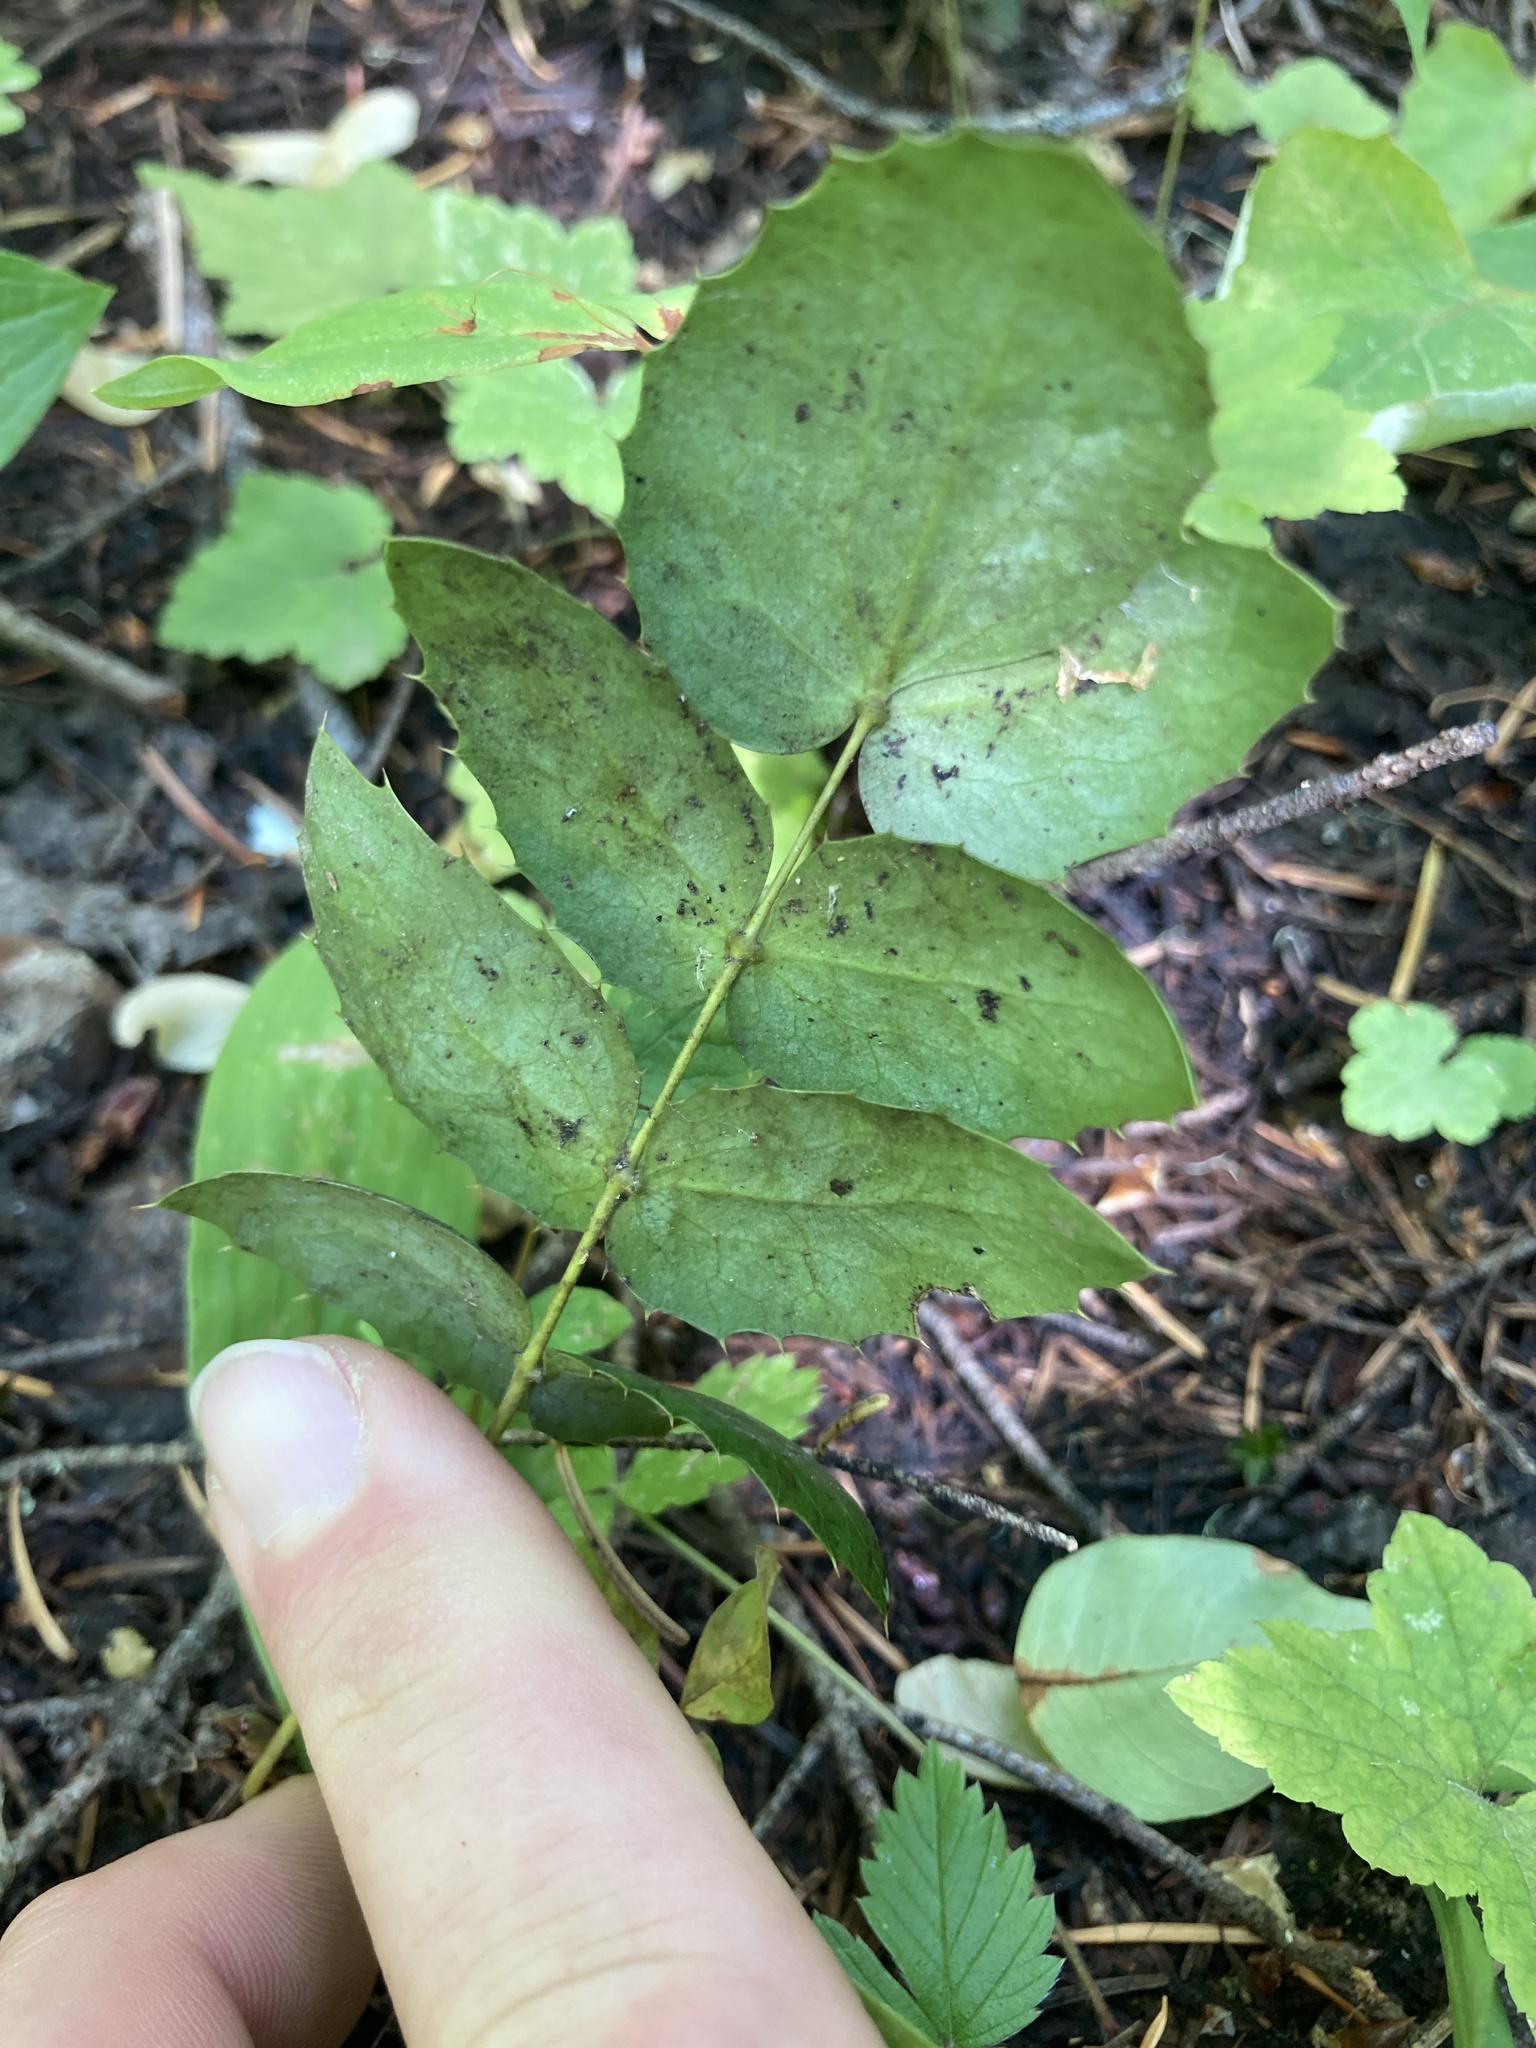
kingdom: Plantae
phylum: Tracheophyta
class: Magnoliopsida
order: Ranunculales
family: Berberidaceae
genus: Mahonia
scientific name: Mahonia nervosa
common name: Cascade oregon-grape
